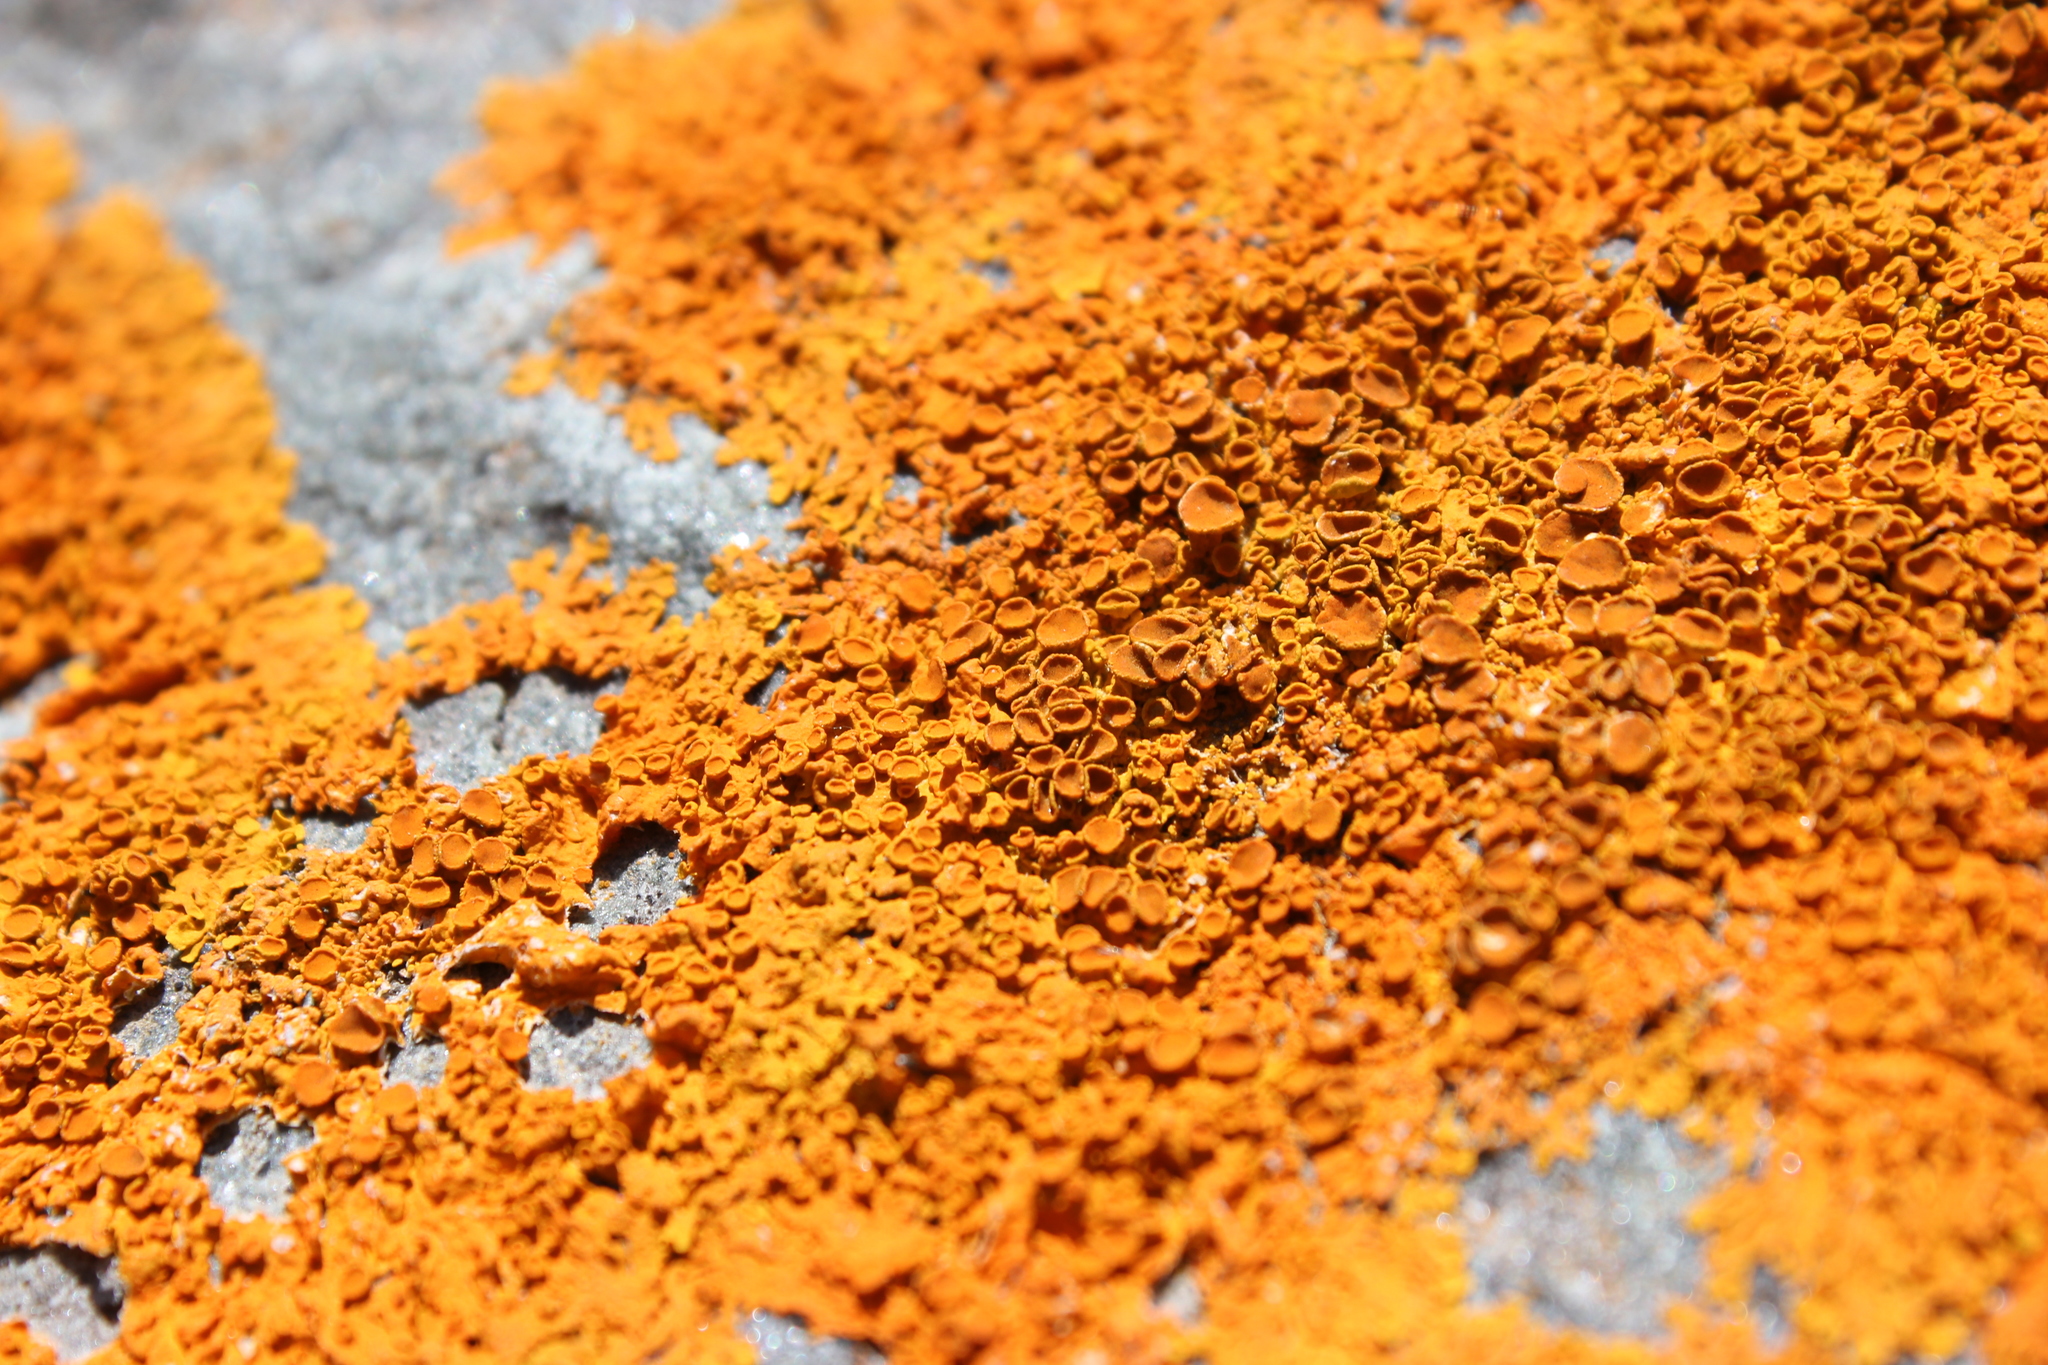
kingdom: Fungi
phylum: Ascomycota
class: Lecanoromycetes
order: Teloschistales
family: Teloschistaceae
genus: Xanthoria
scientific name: Xanthoria elegans
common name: Elegant sunburst lichen
